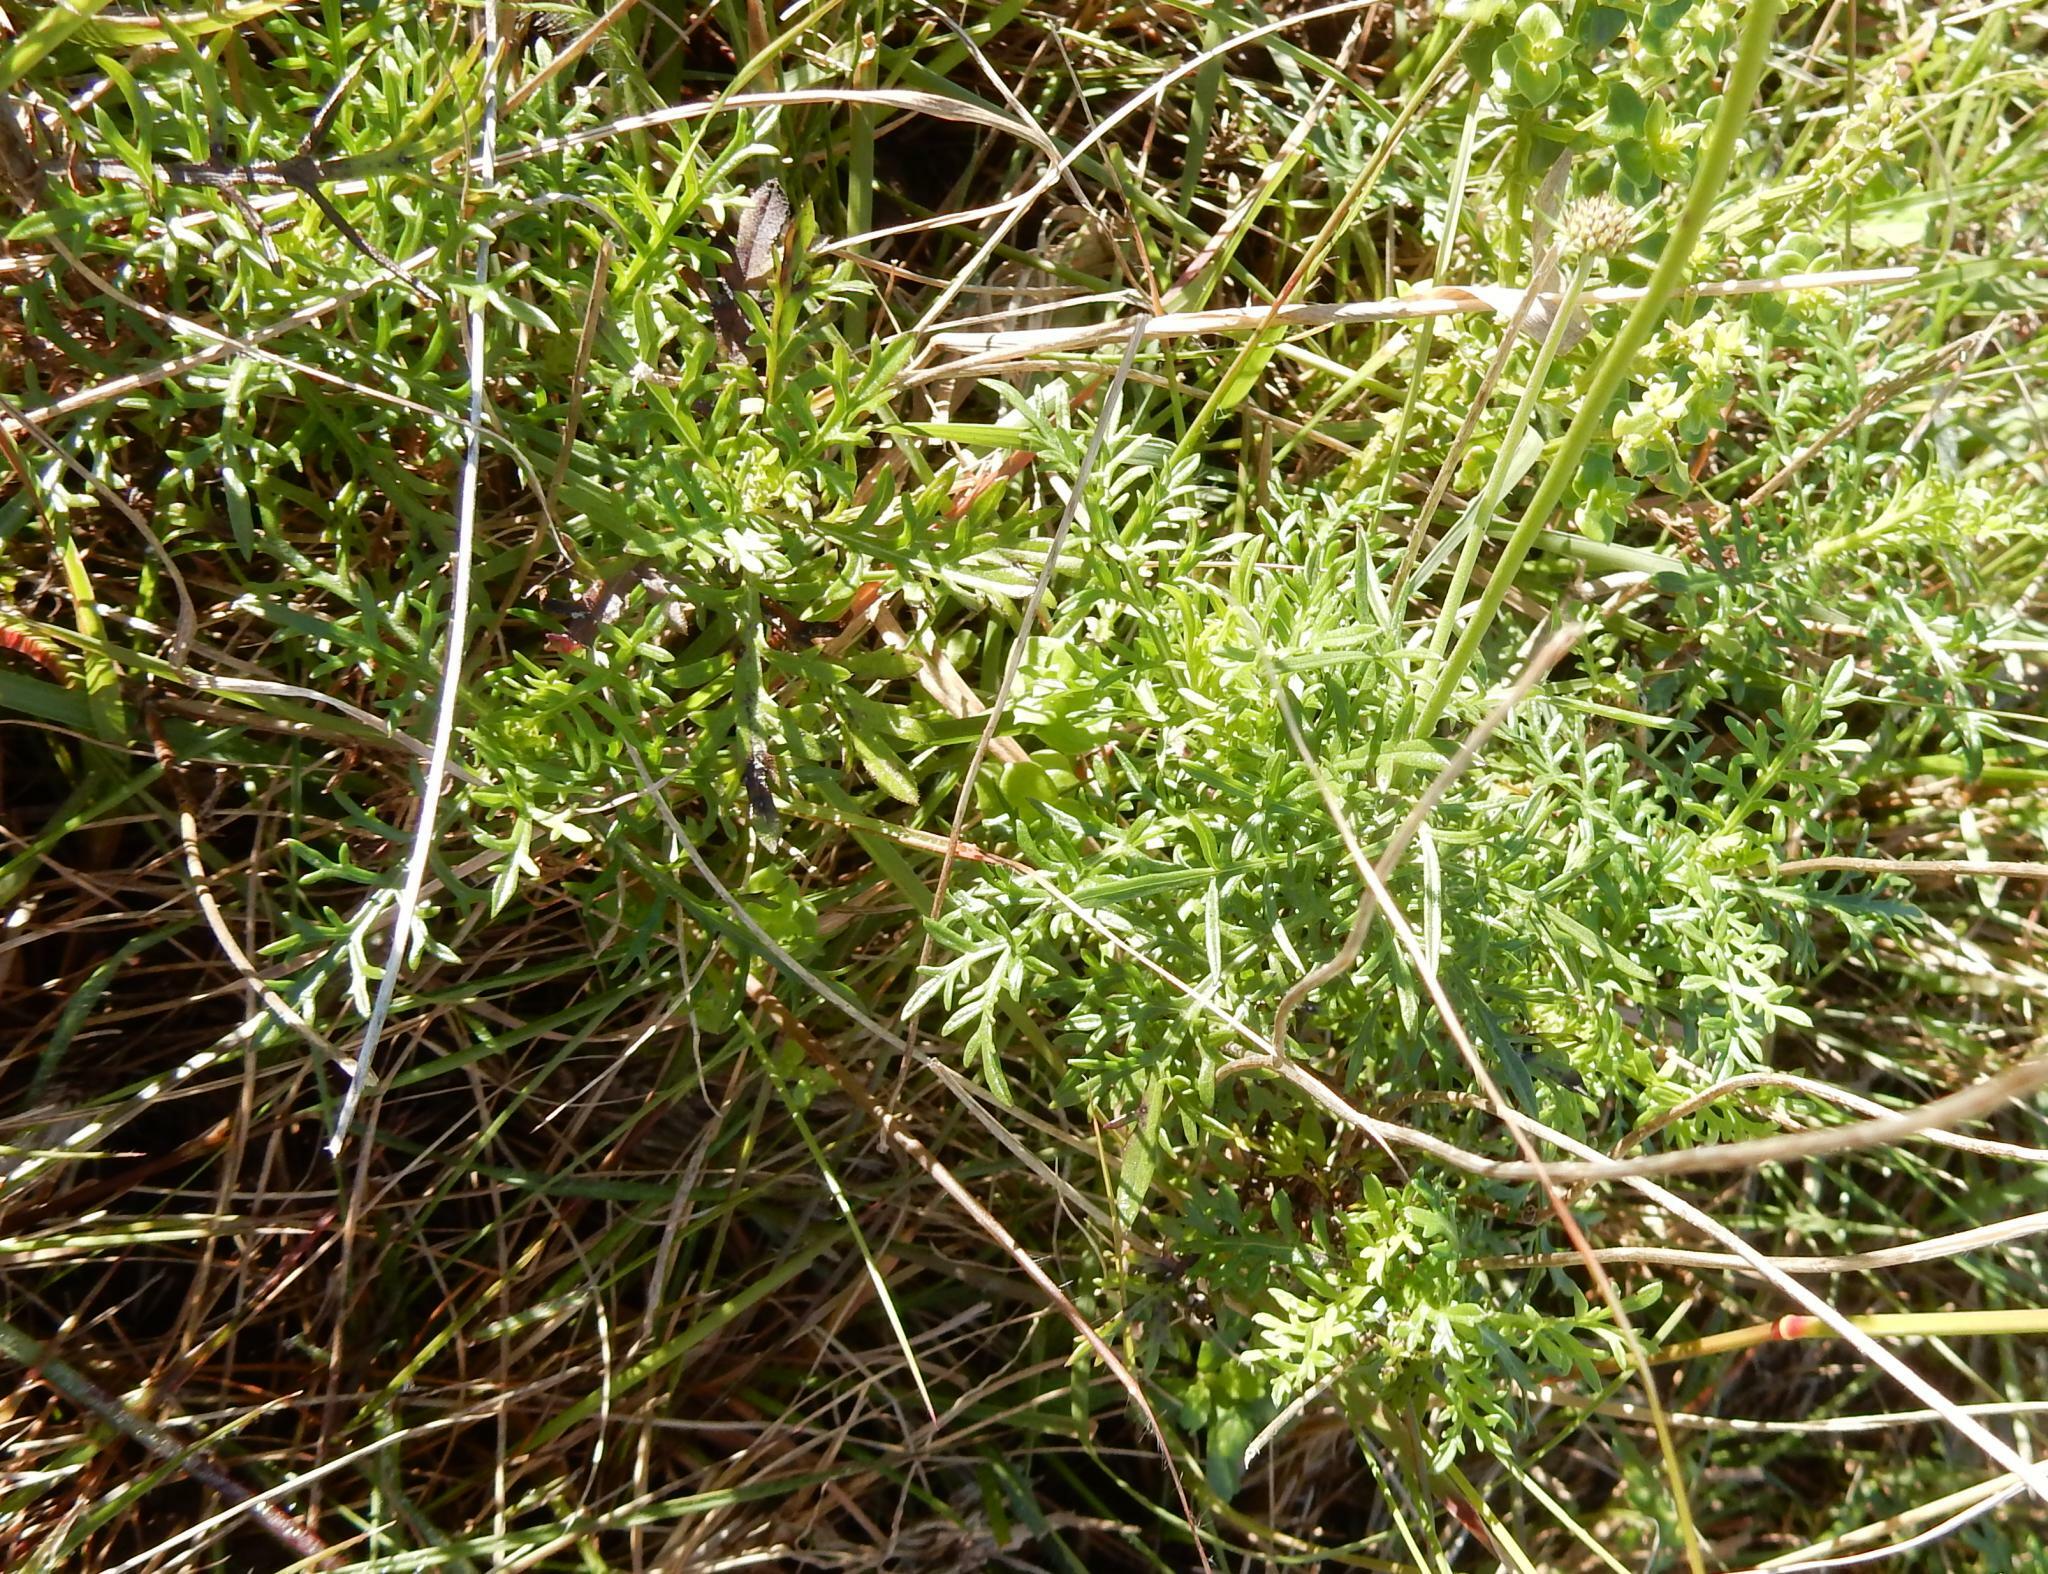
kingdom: Plantae
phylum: Tracheophyta
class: Magnoliopsida
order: Dipsacales
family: Caprifoliaceae
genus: Scabiosa
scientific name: Scabiosa columbaria
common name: Small scabious
